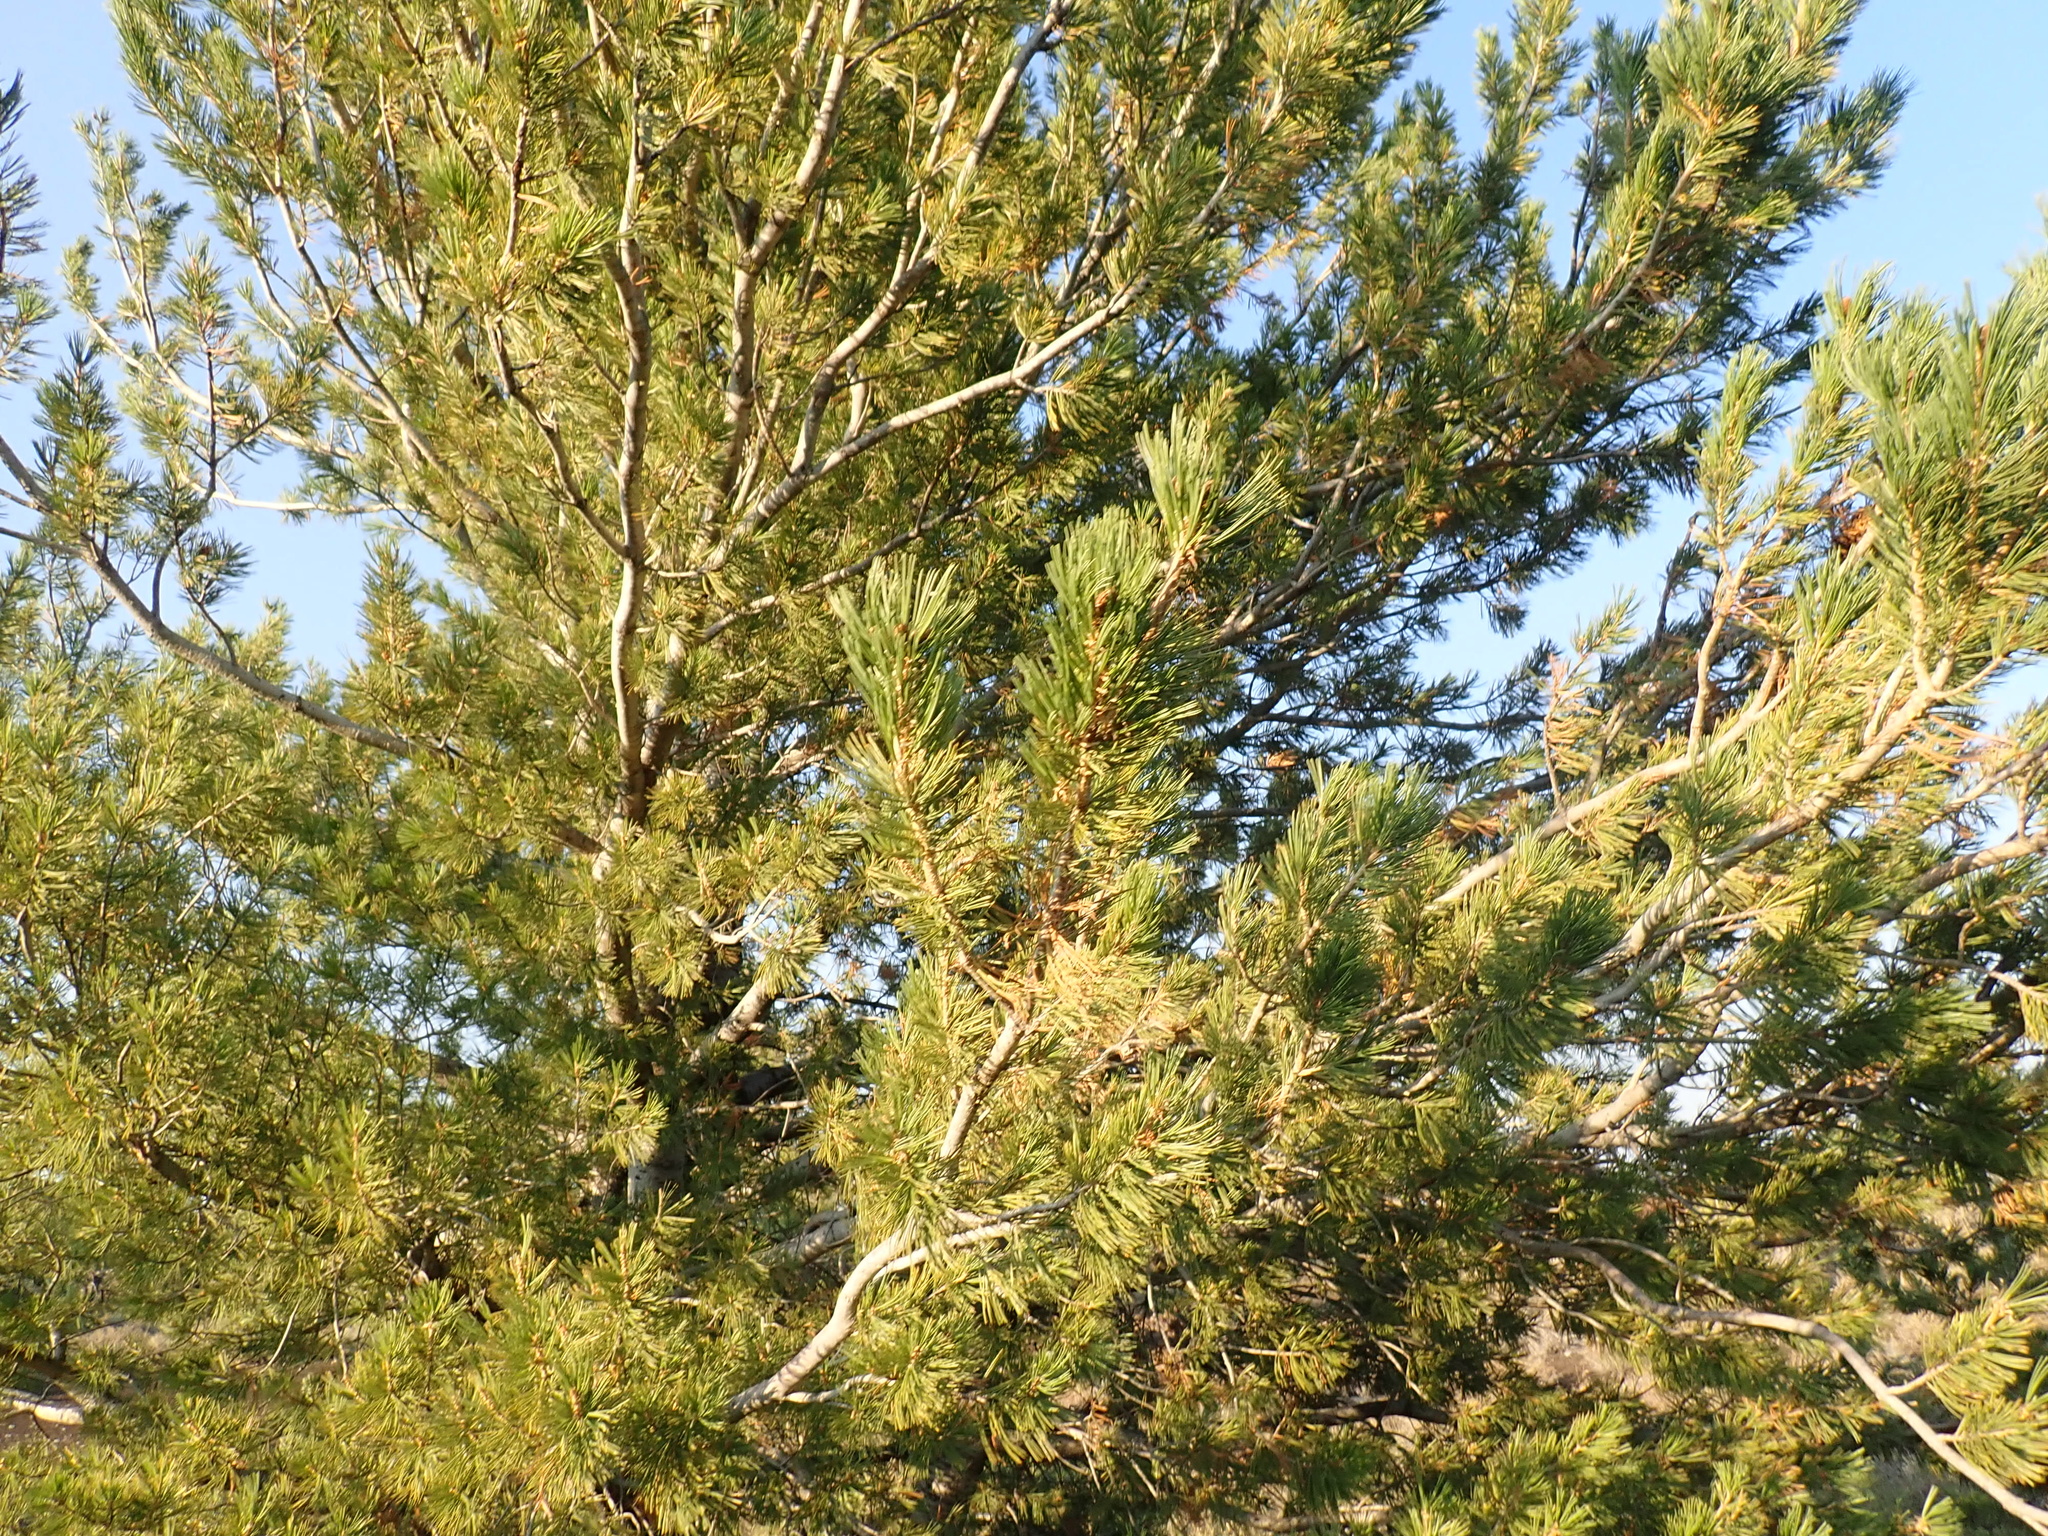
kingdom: Plantae
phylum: Tracheophyta
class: Pinopsida
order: Pinales
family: Pinaceae
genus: Pinus
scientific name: Pinus flexilis
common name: Limber pine
